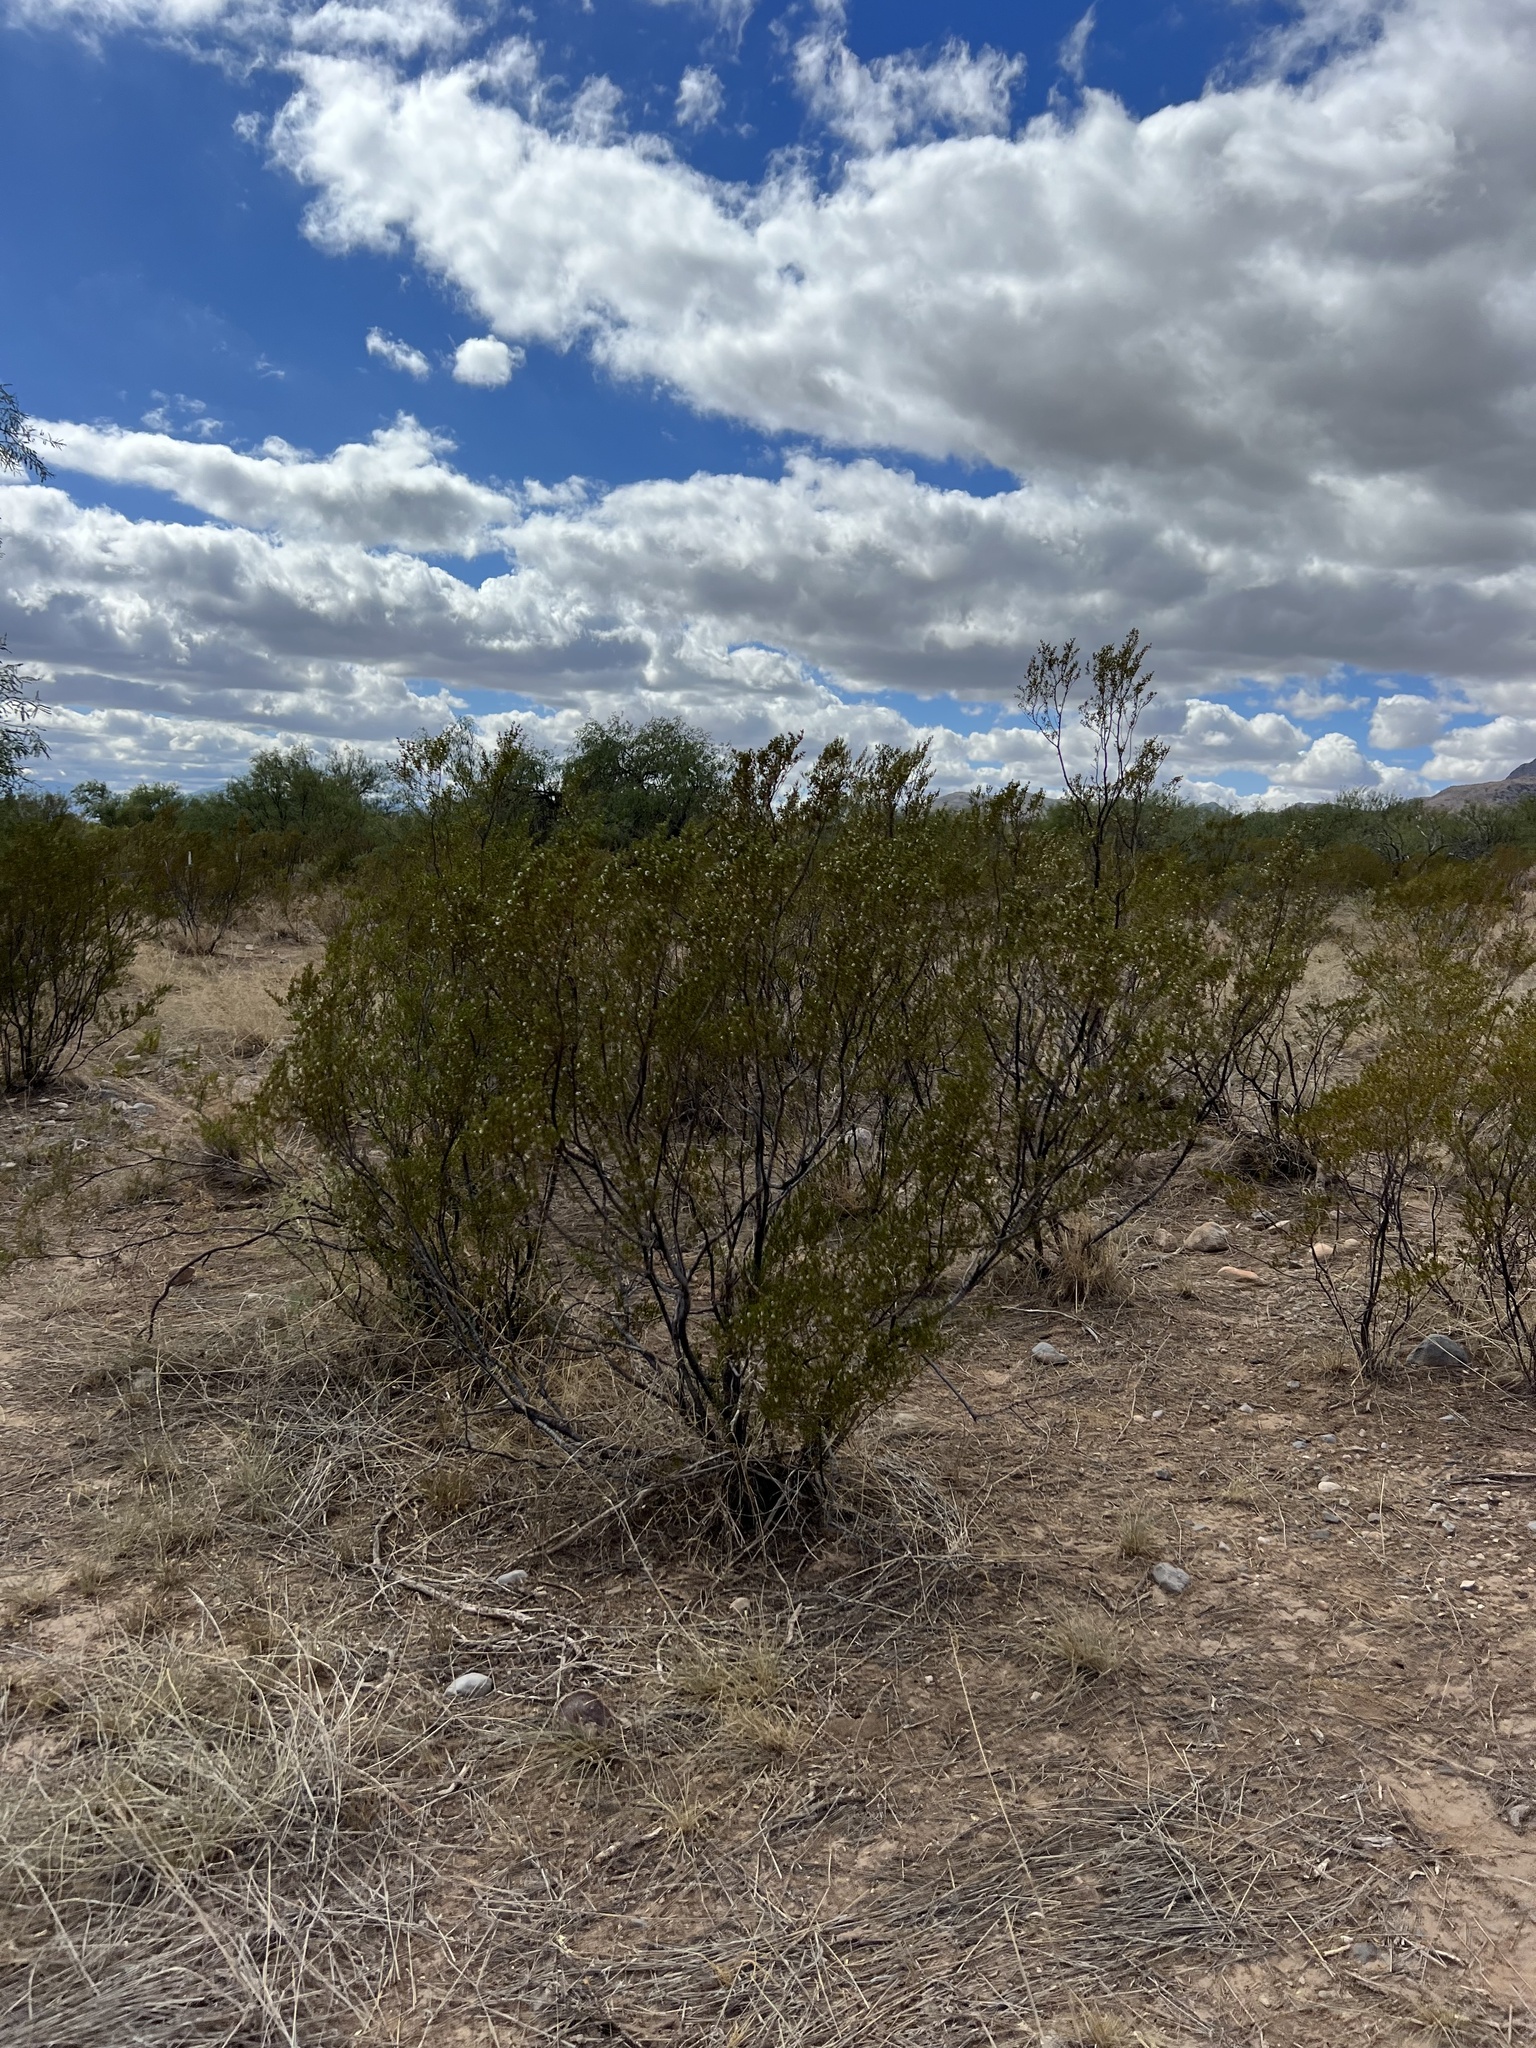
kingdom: Plantae
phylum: Tracheophyta
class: Magnoliopsida
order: Zygophyllales
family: Zygophyllaceae
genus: Larrea
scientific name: Larrea tridentata
